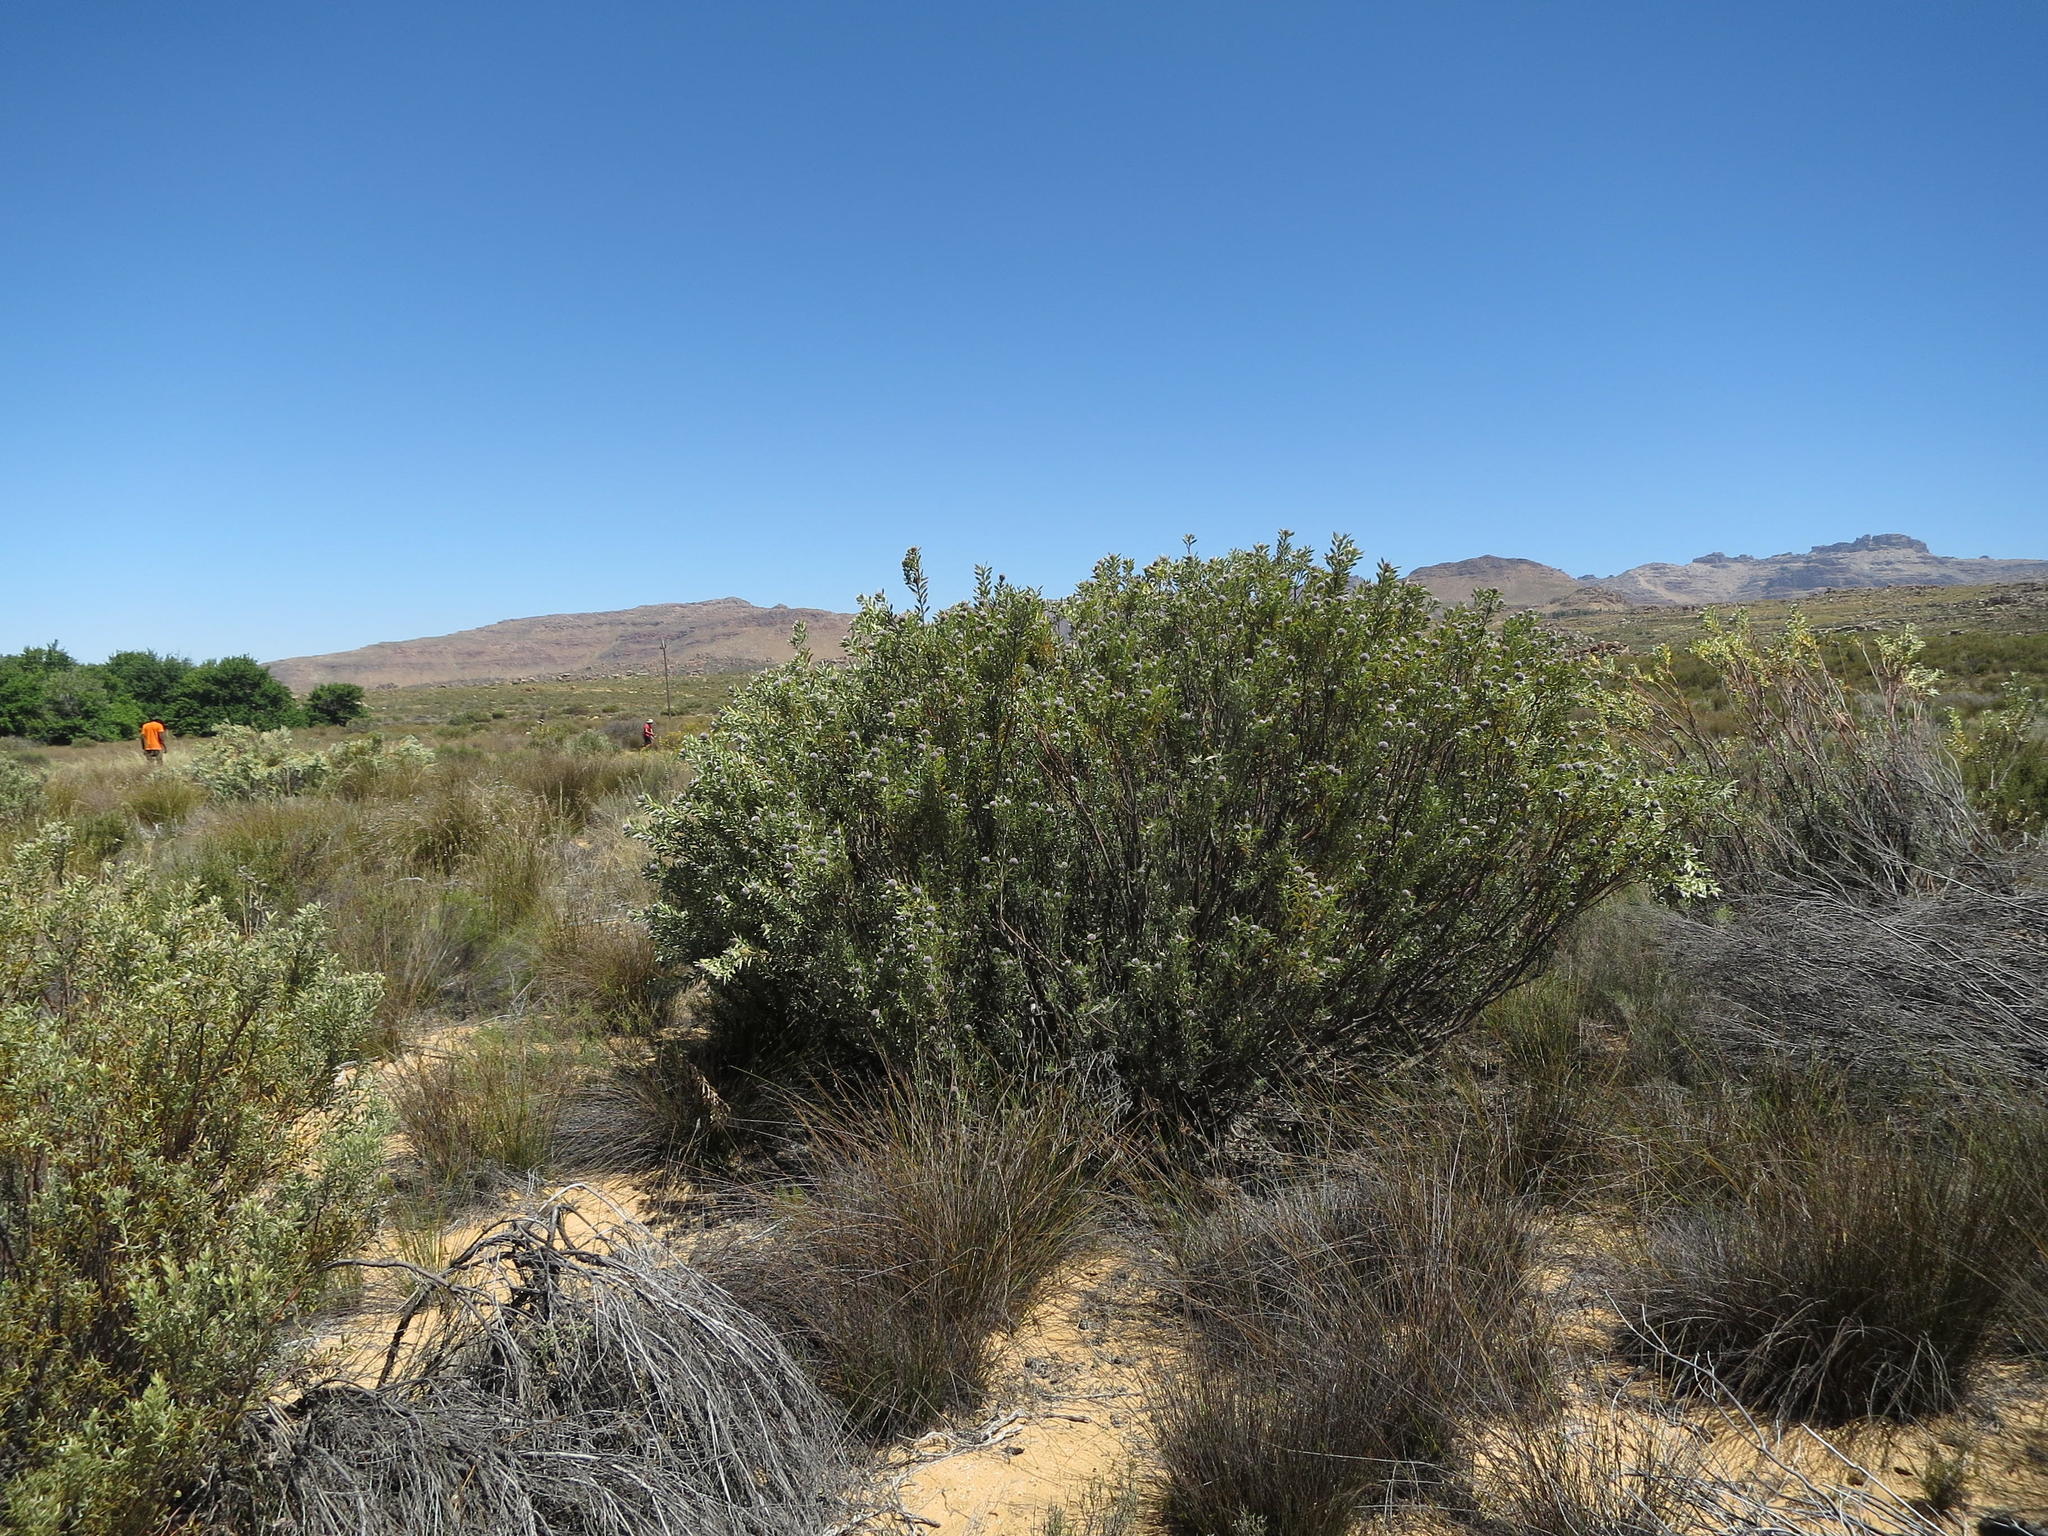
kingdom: Plantae
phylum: Tracheophyta
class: Magnoliopsida
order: Proteales
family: Proteaceae
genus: Leucadendron
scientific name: Leucadendron pubescens
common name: Grey conebush
